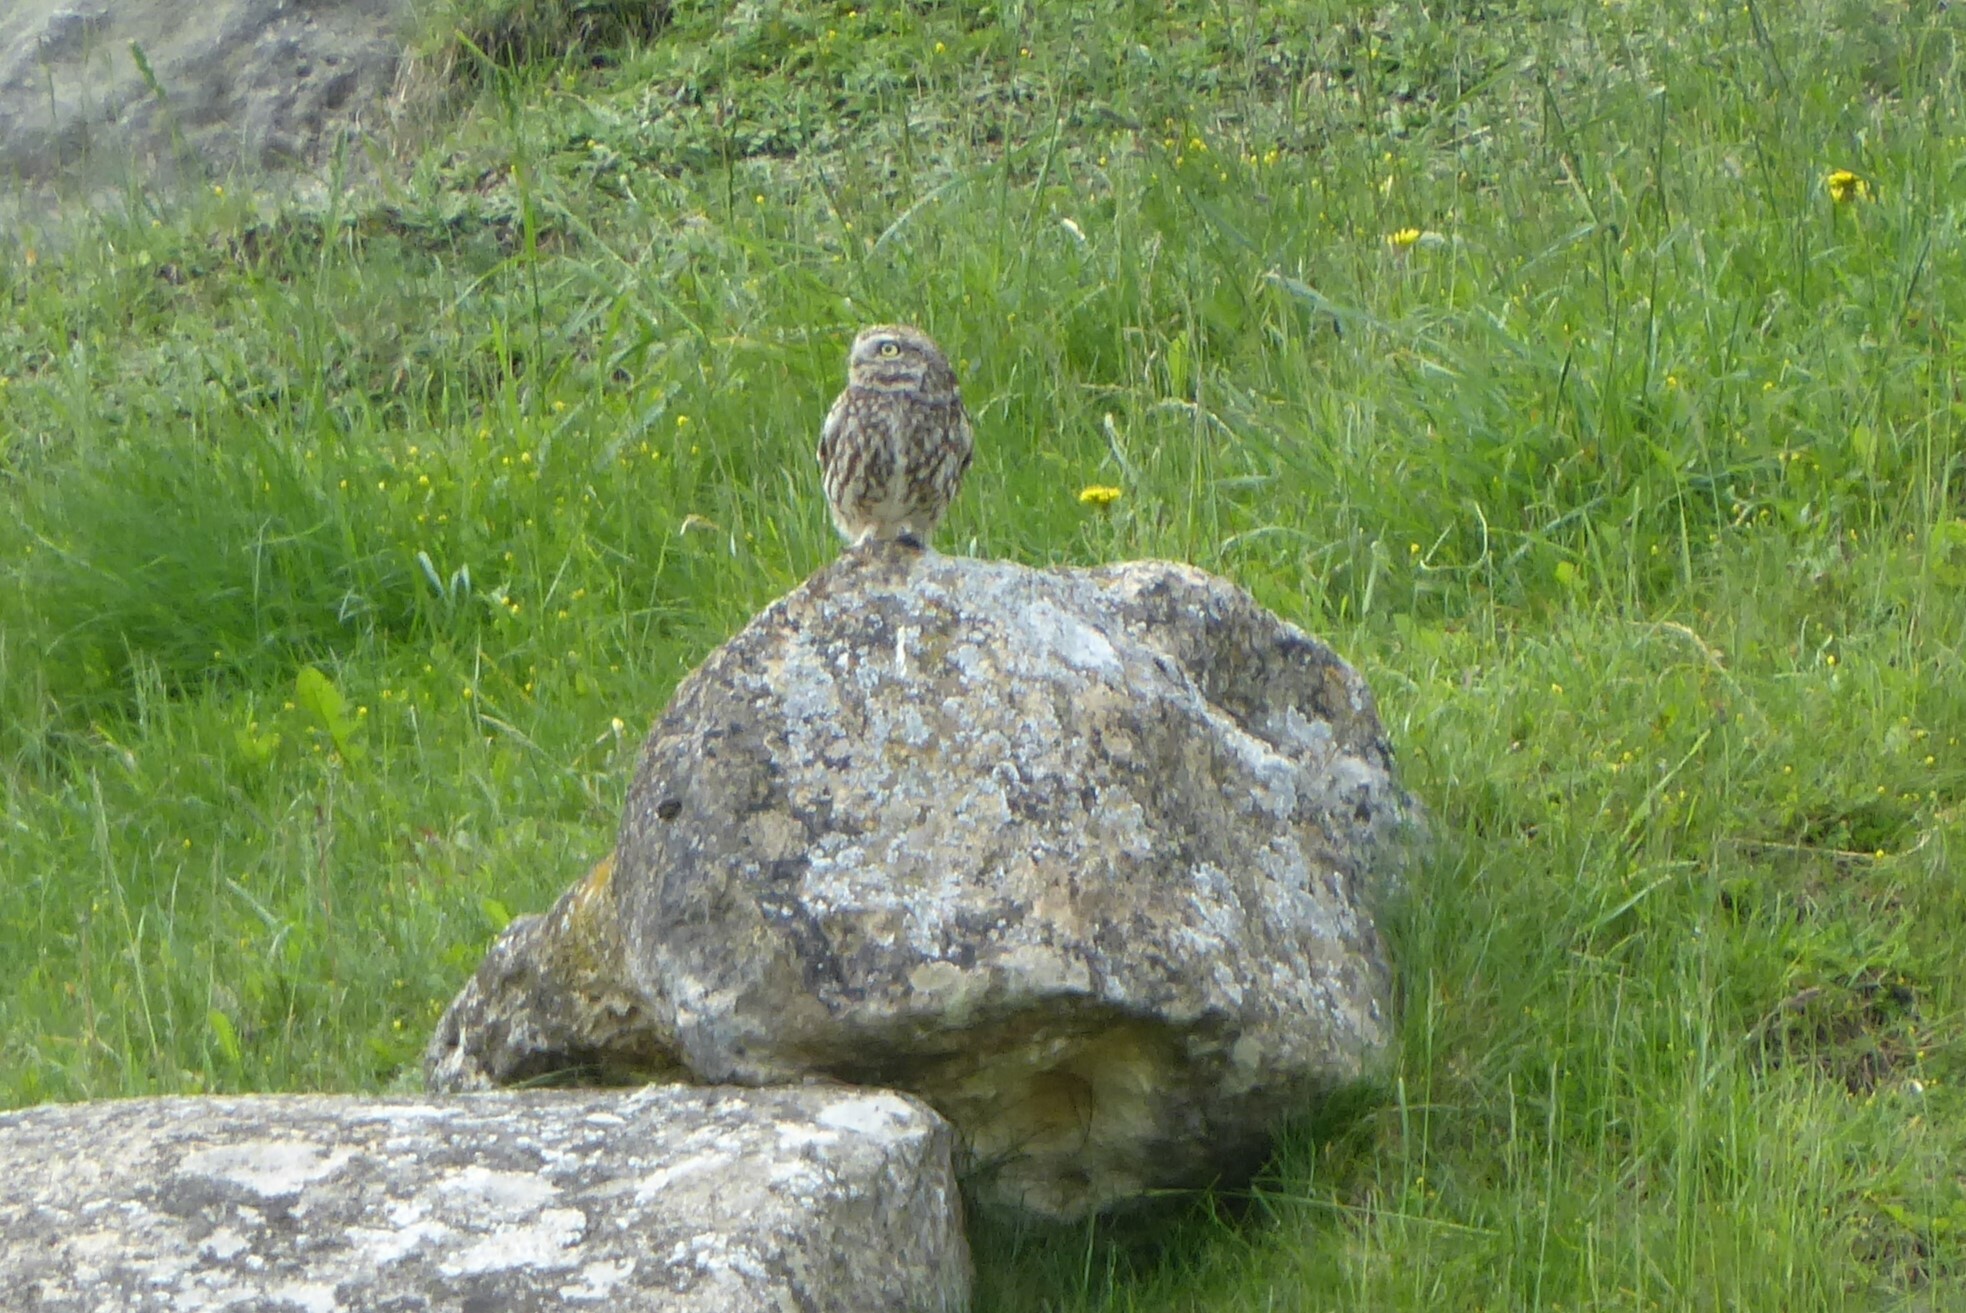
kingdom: Animalia
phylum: Chordata
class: Aves
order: Strigiformes
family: Strigidae
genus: Athene
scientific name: Athene noctua
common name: Little owl
